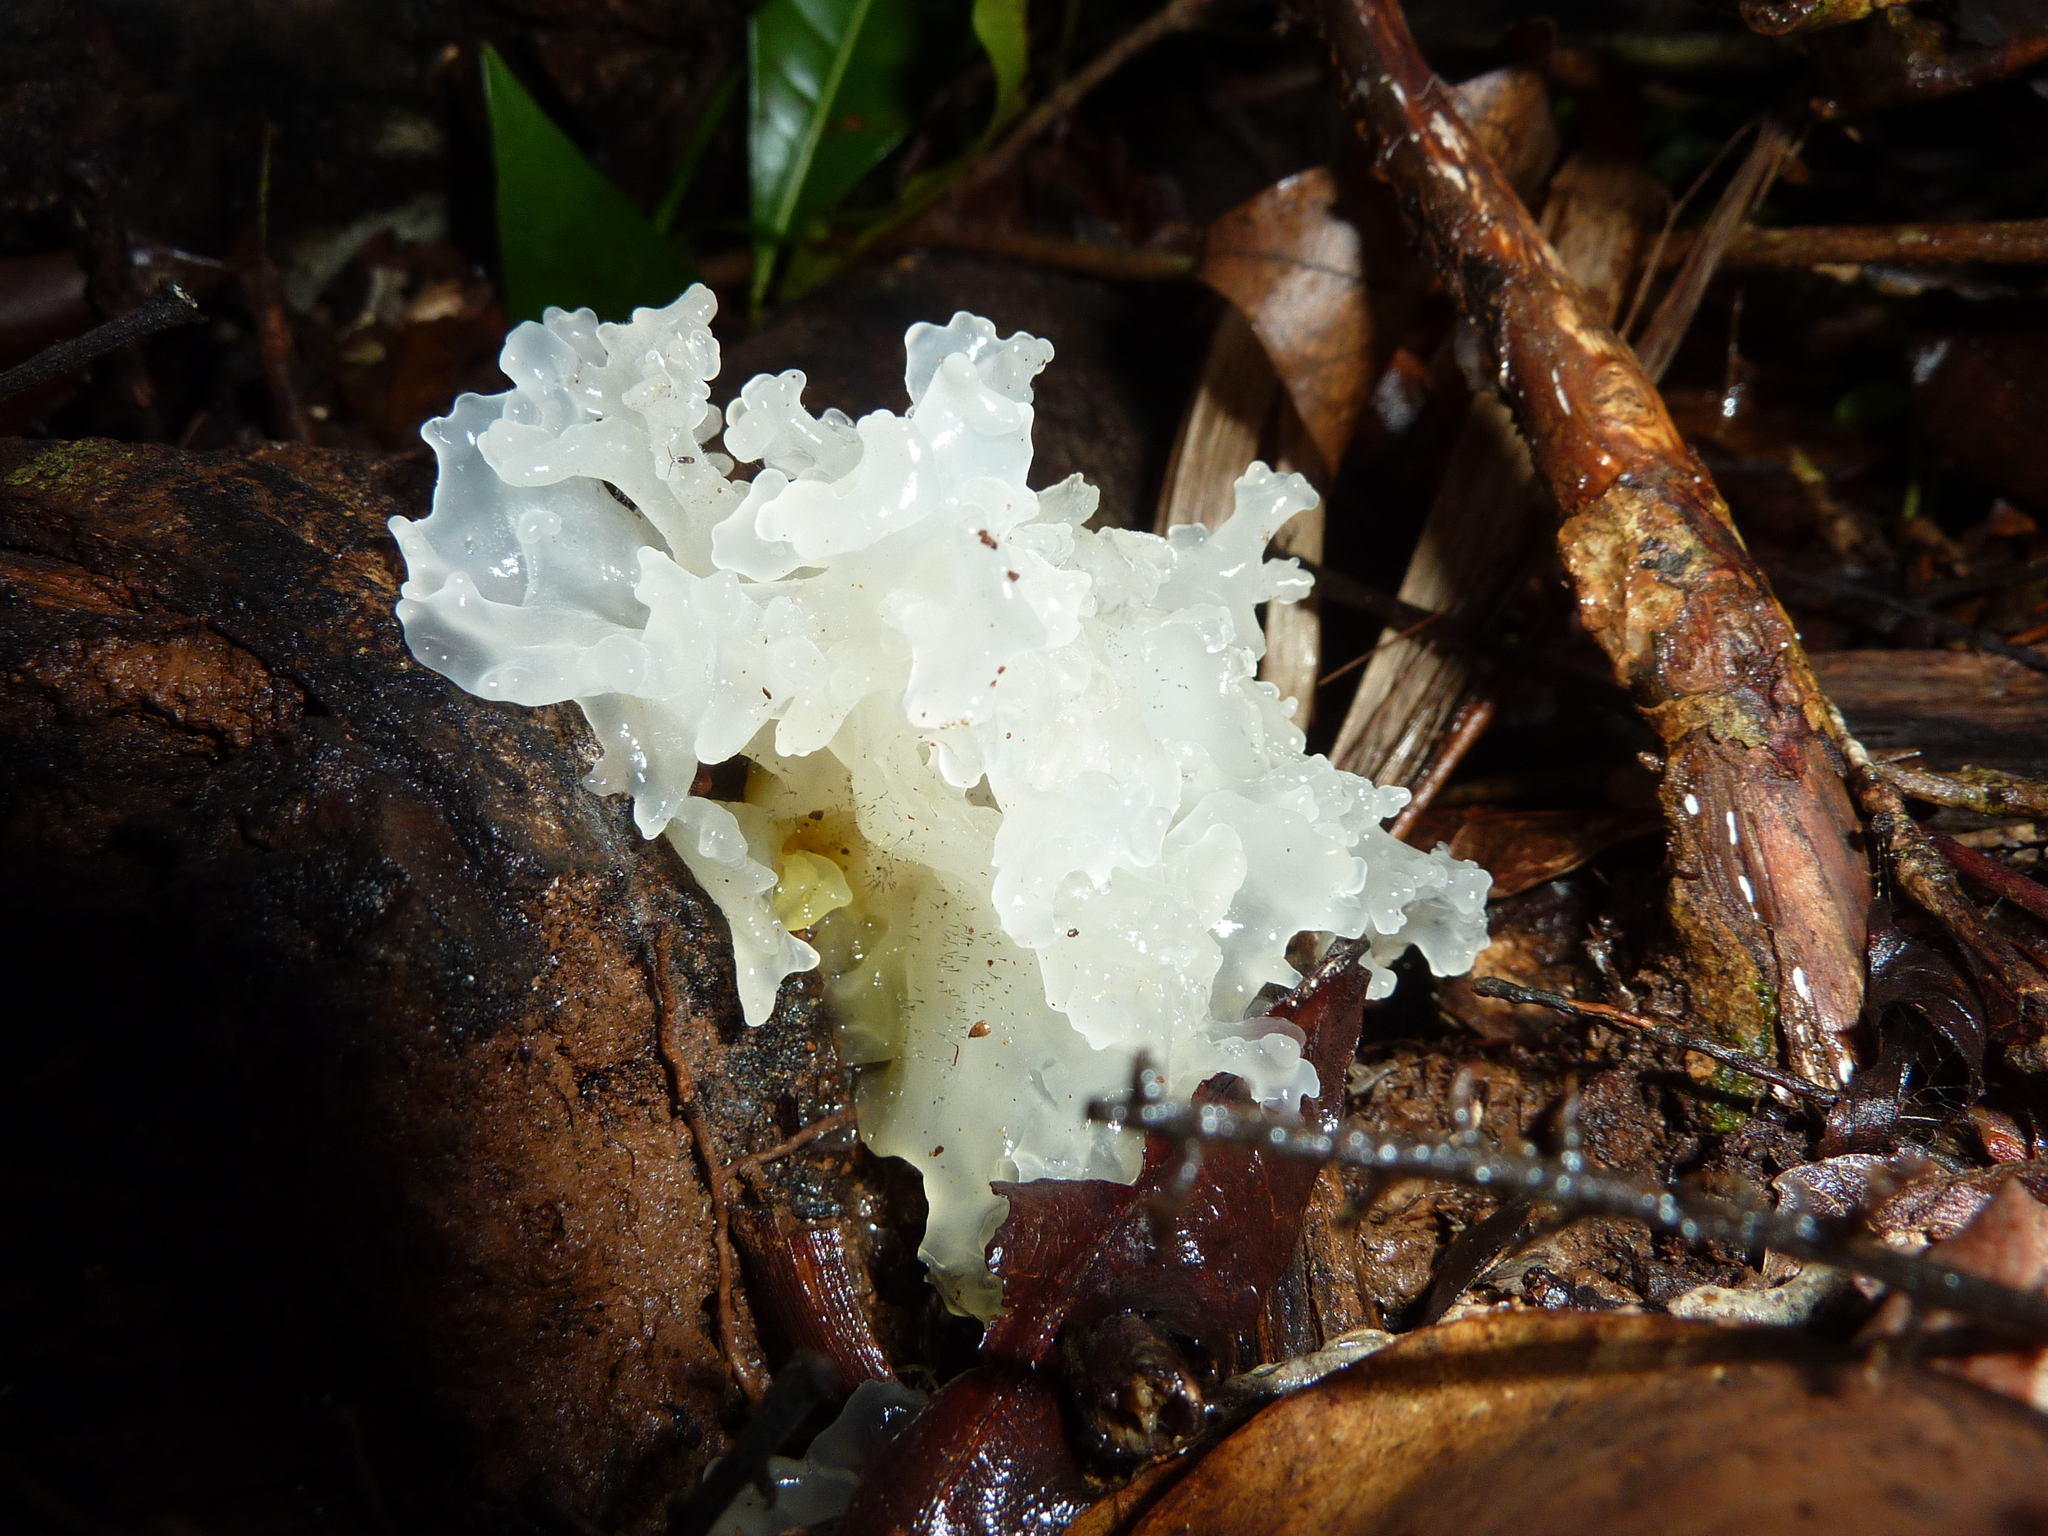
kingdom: Fungi
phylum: Basidiomycota
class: Tremellomycetes
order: Tremellales
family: Tremellaceae
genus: Tremella
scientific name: Tremella fuciformis
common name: Snow fungus
